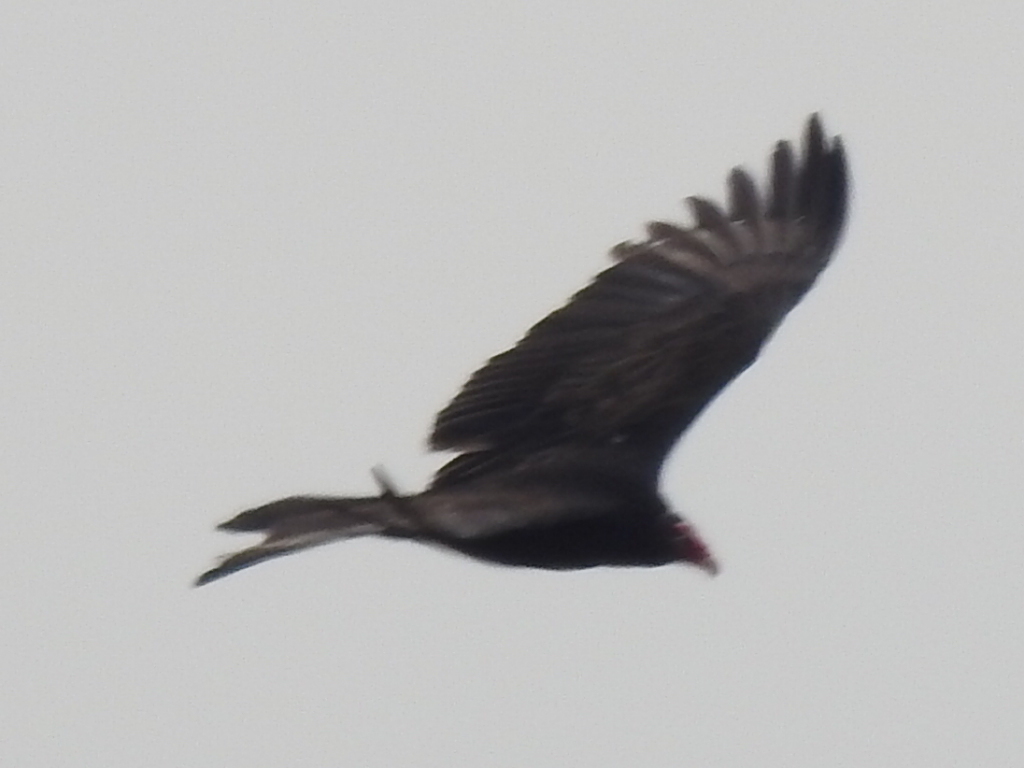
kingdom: Animalia
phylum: Chordata
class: Aves
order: Accipitriformes
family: Cathartidae
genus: Cathartes
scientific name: Cathartes aura
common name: Turkey vulture
